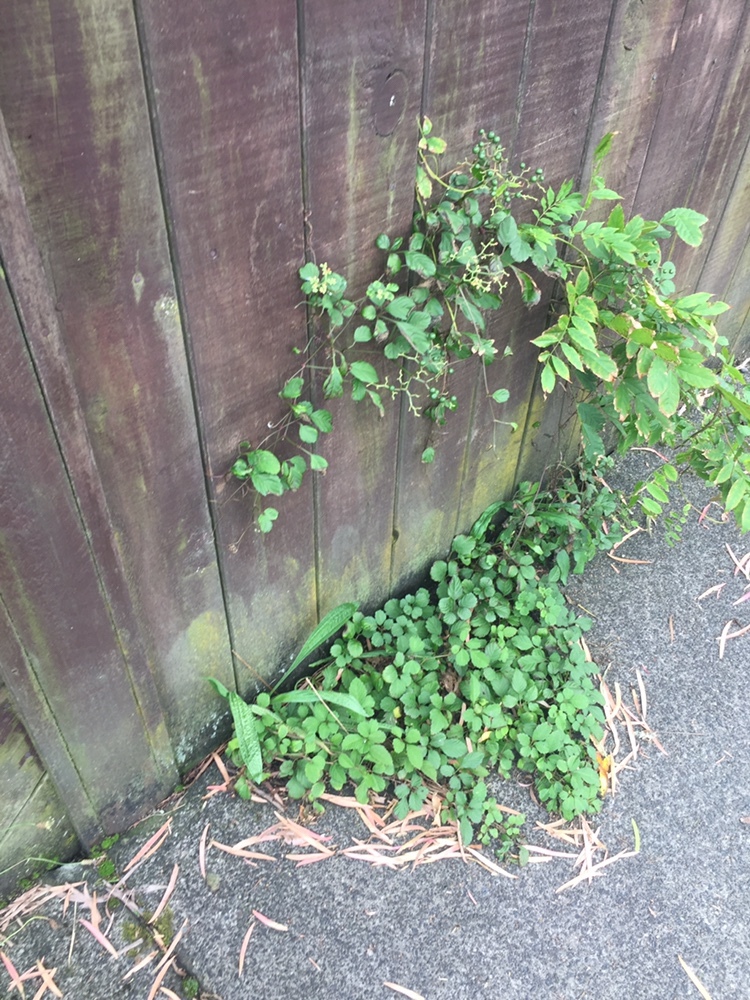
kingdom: Plantae
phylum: Tracheophyta
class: Magnoliopsida
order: Vitales
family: Vitaceae
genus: Causonis
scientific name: Causonis japonica
